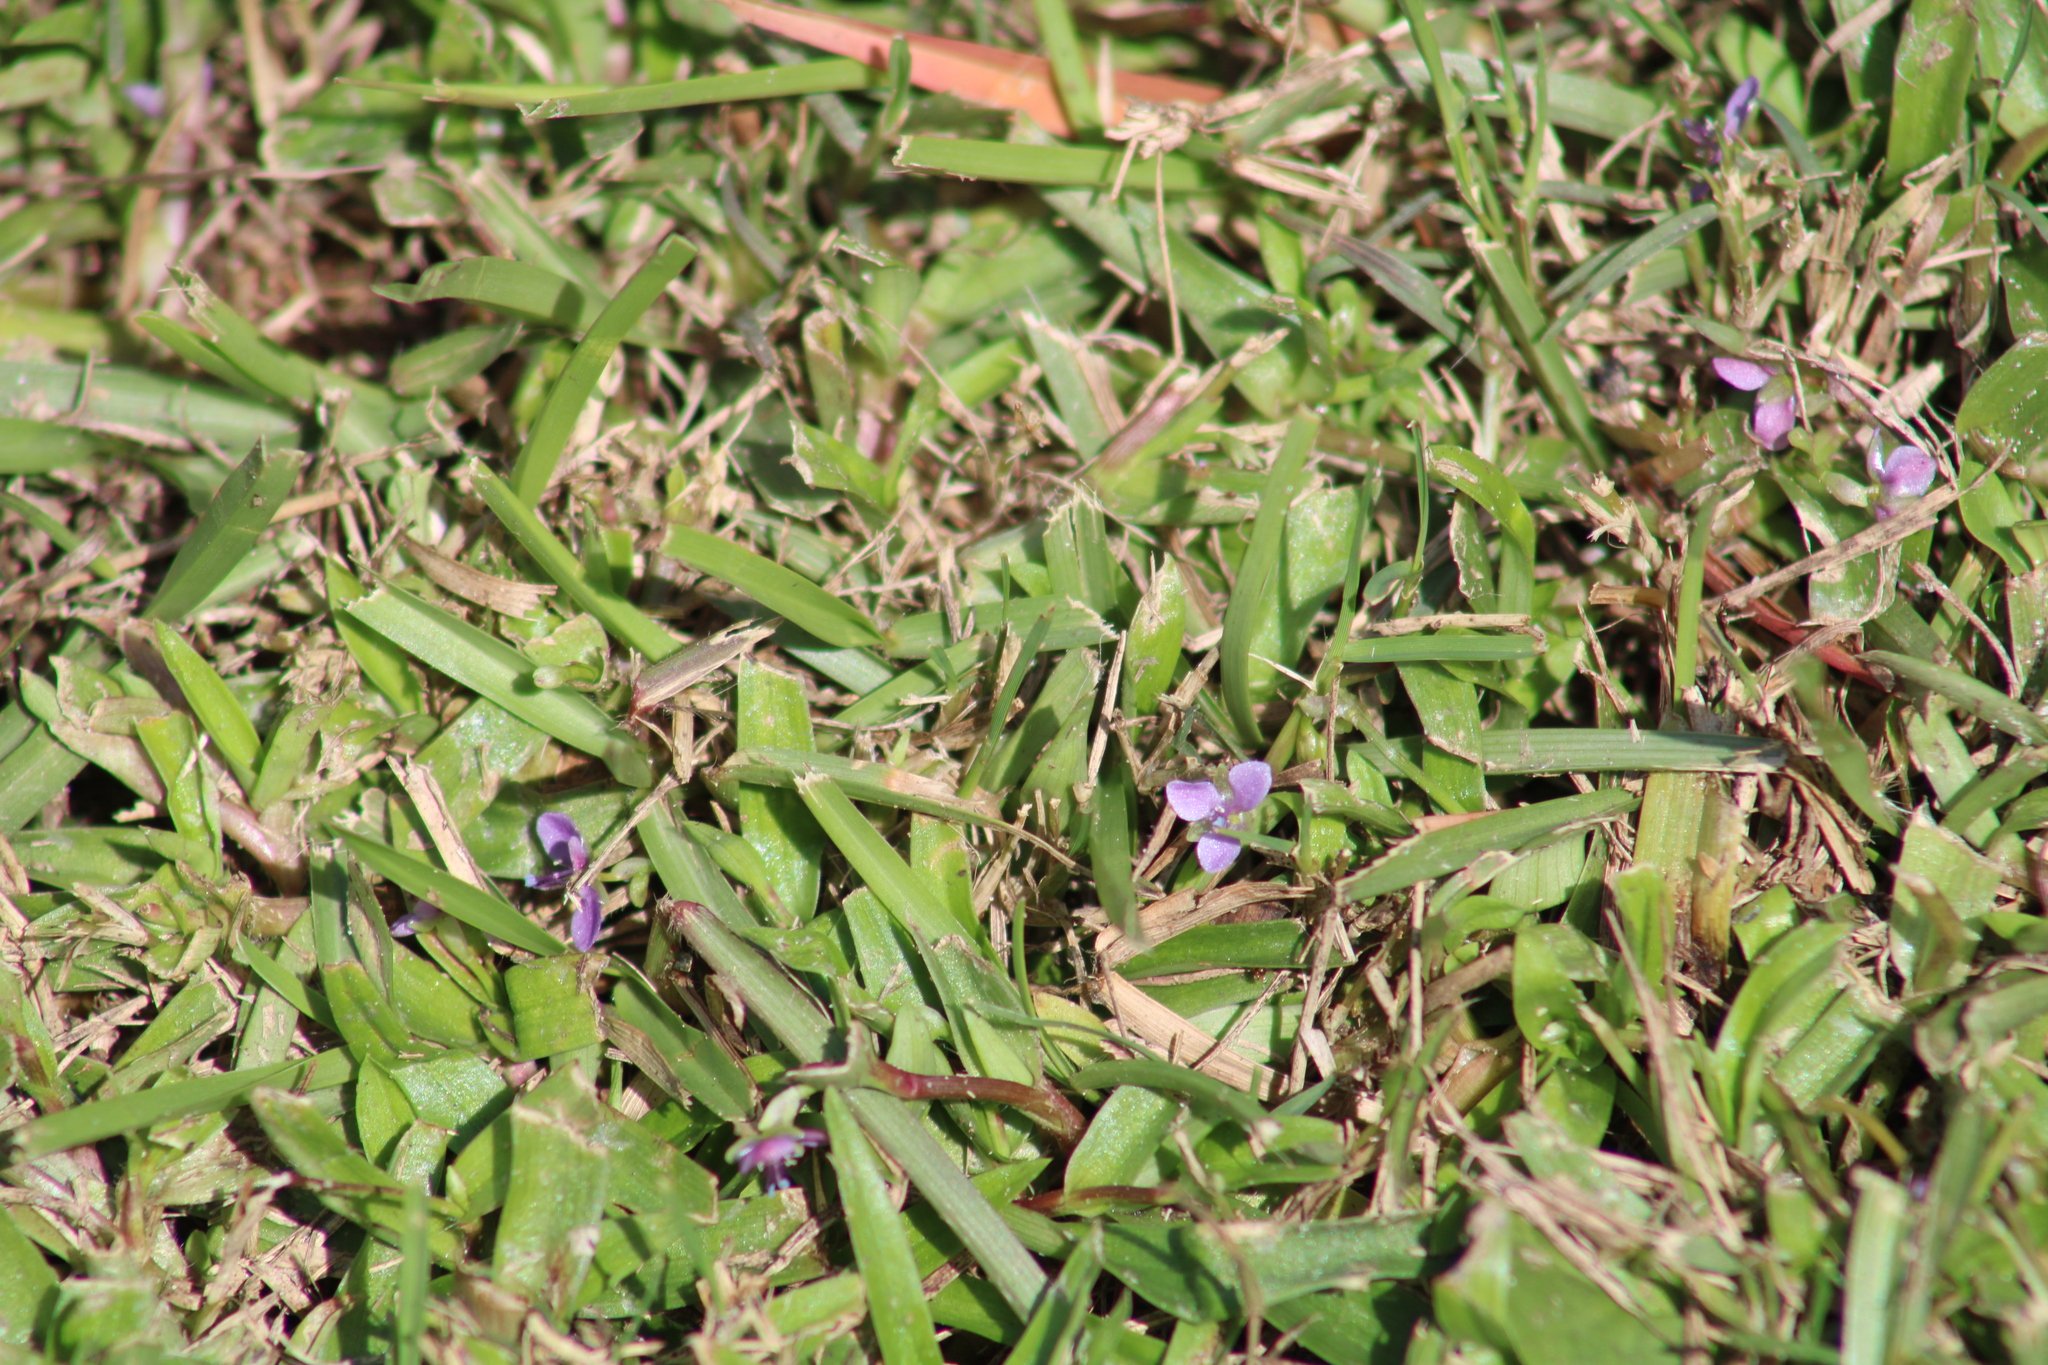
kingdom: Plantae
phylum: Tracheophyta
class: Liliopsida
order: Commelinales
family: Commelinaceae
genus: Murdannia
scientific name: Murdannia nudiflora
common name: Nakedstem dewflower
